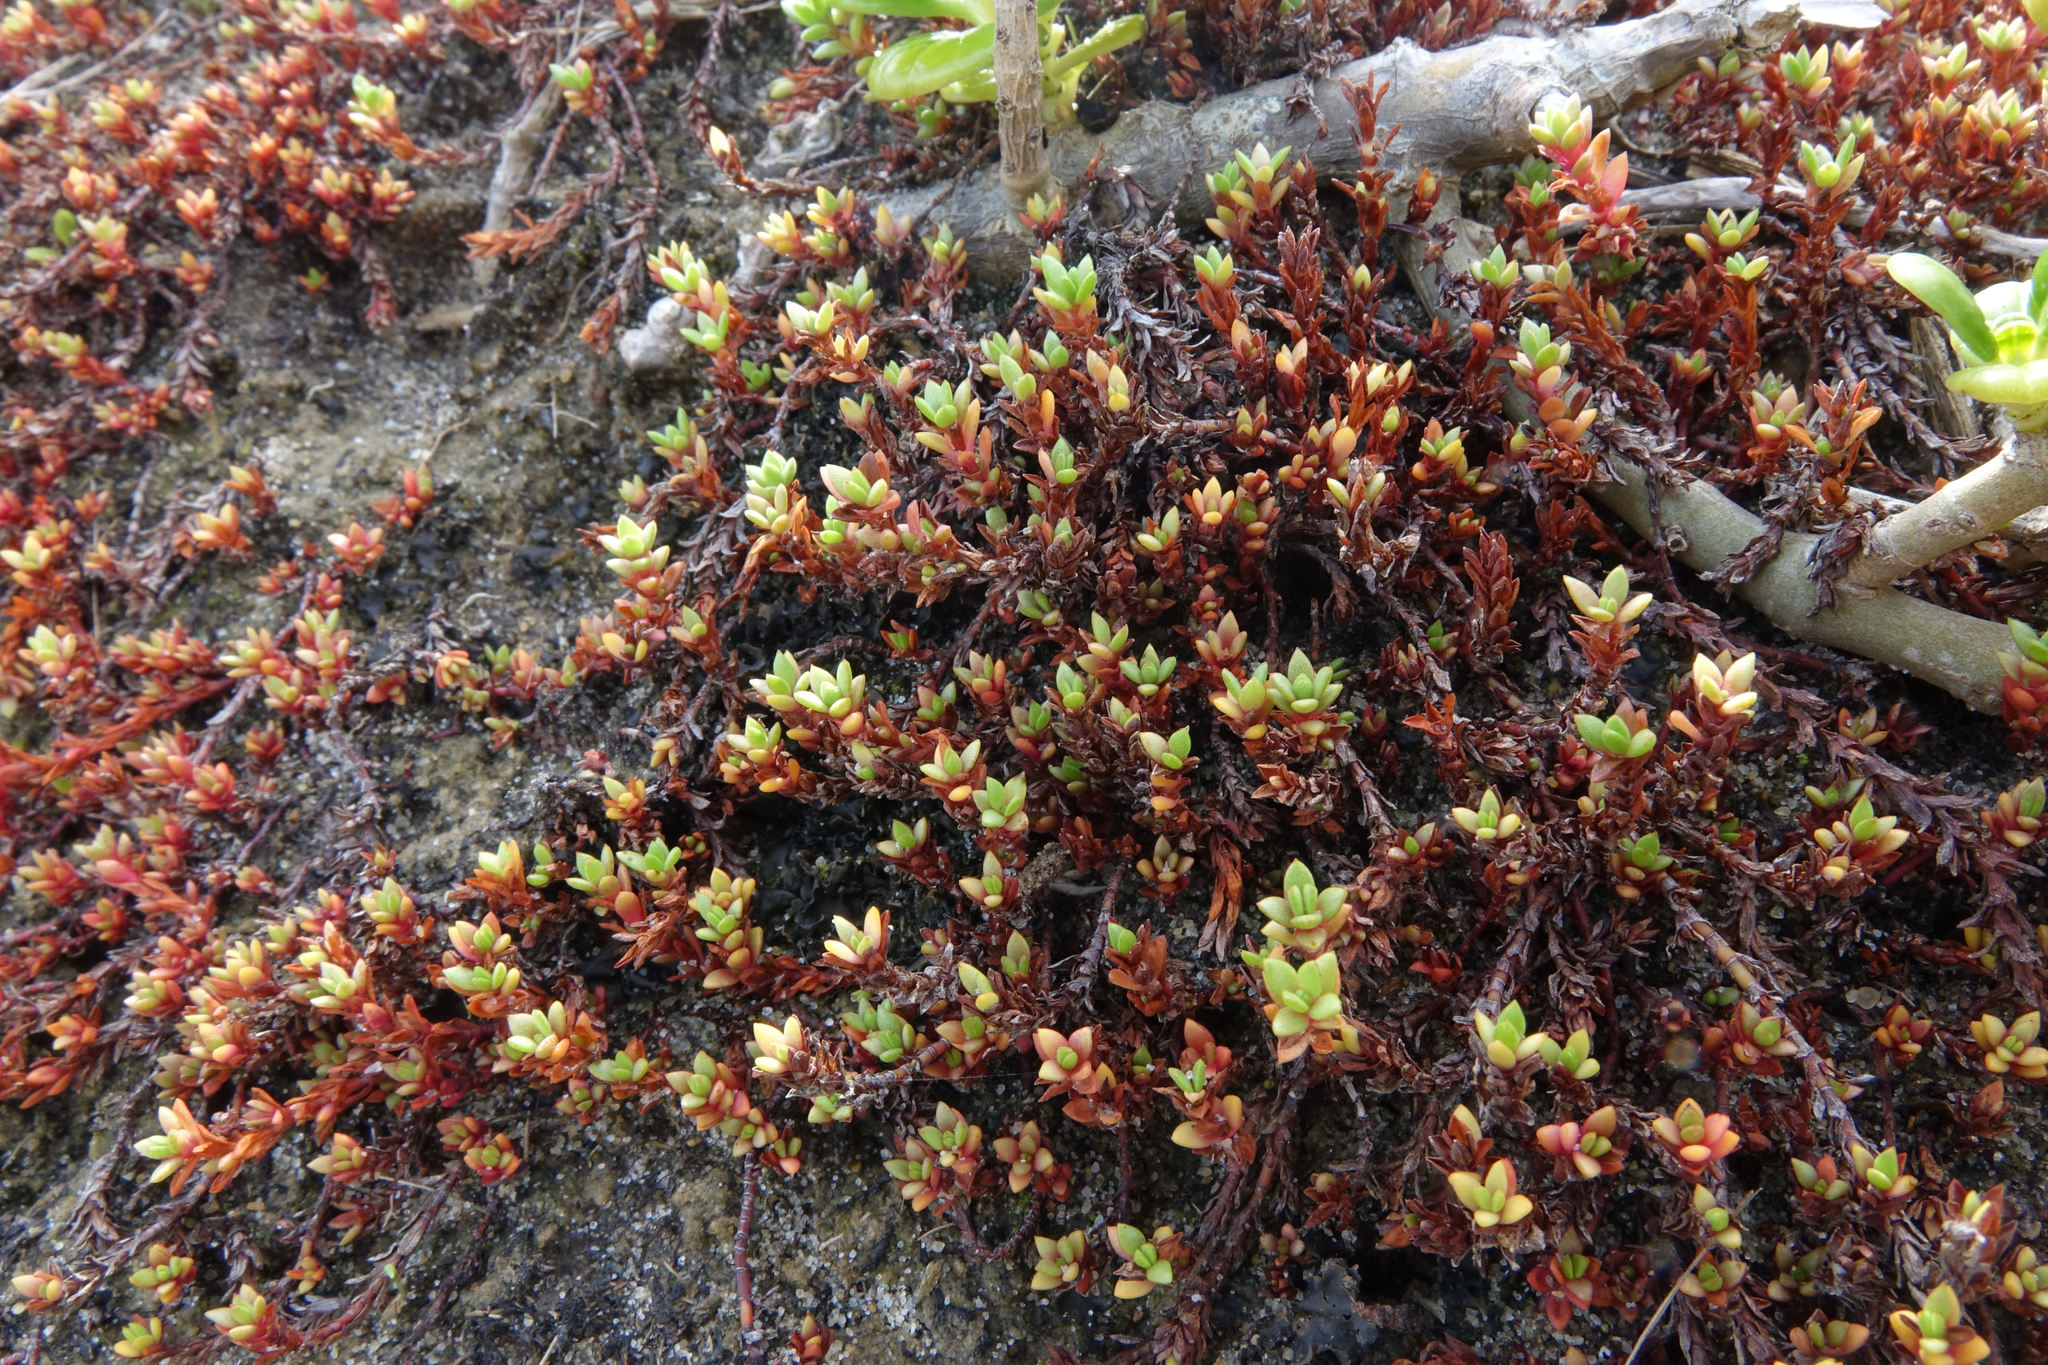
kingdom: Plantae
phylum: Tracheophyta
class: Magnoliopsida
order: Saxifragales
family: Crassulaceae
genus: Crassula
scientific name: Crassula moschata
